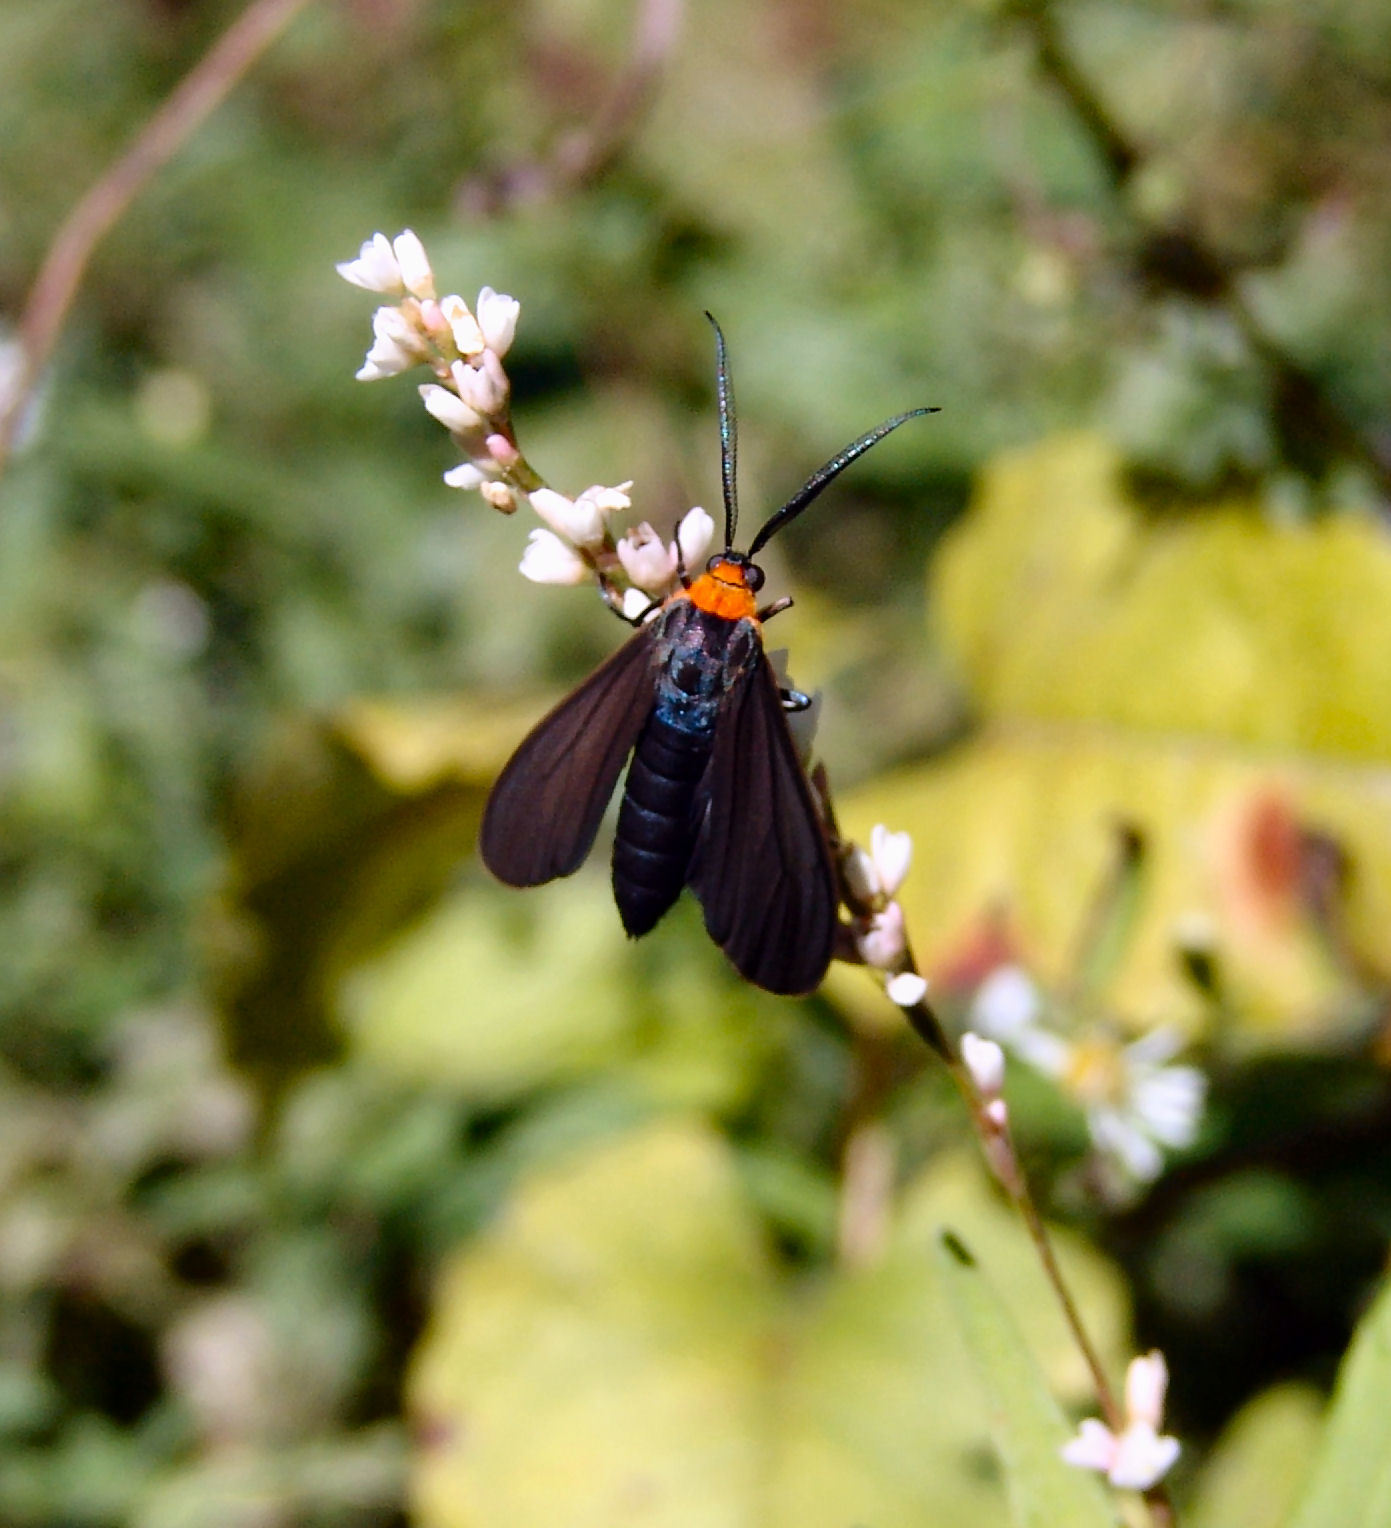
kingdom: Animalia
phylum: Arthropoda
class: Insecta
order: Lepidoptera
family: Erebidae
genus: Cisseps
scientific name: Cisseps fulvicollis
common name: Yellow-collared scape moth
